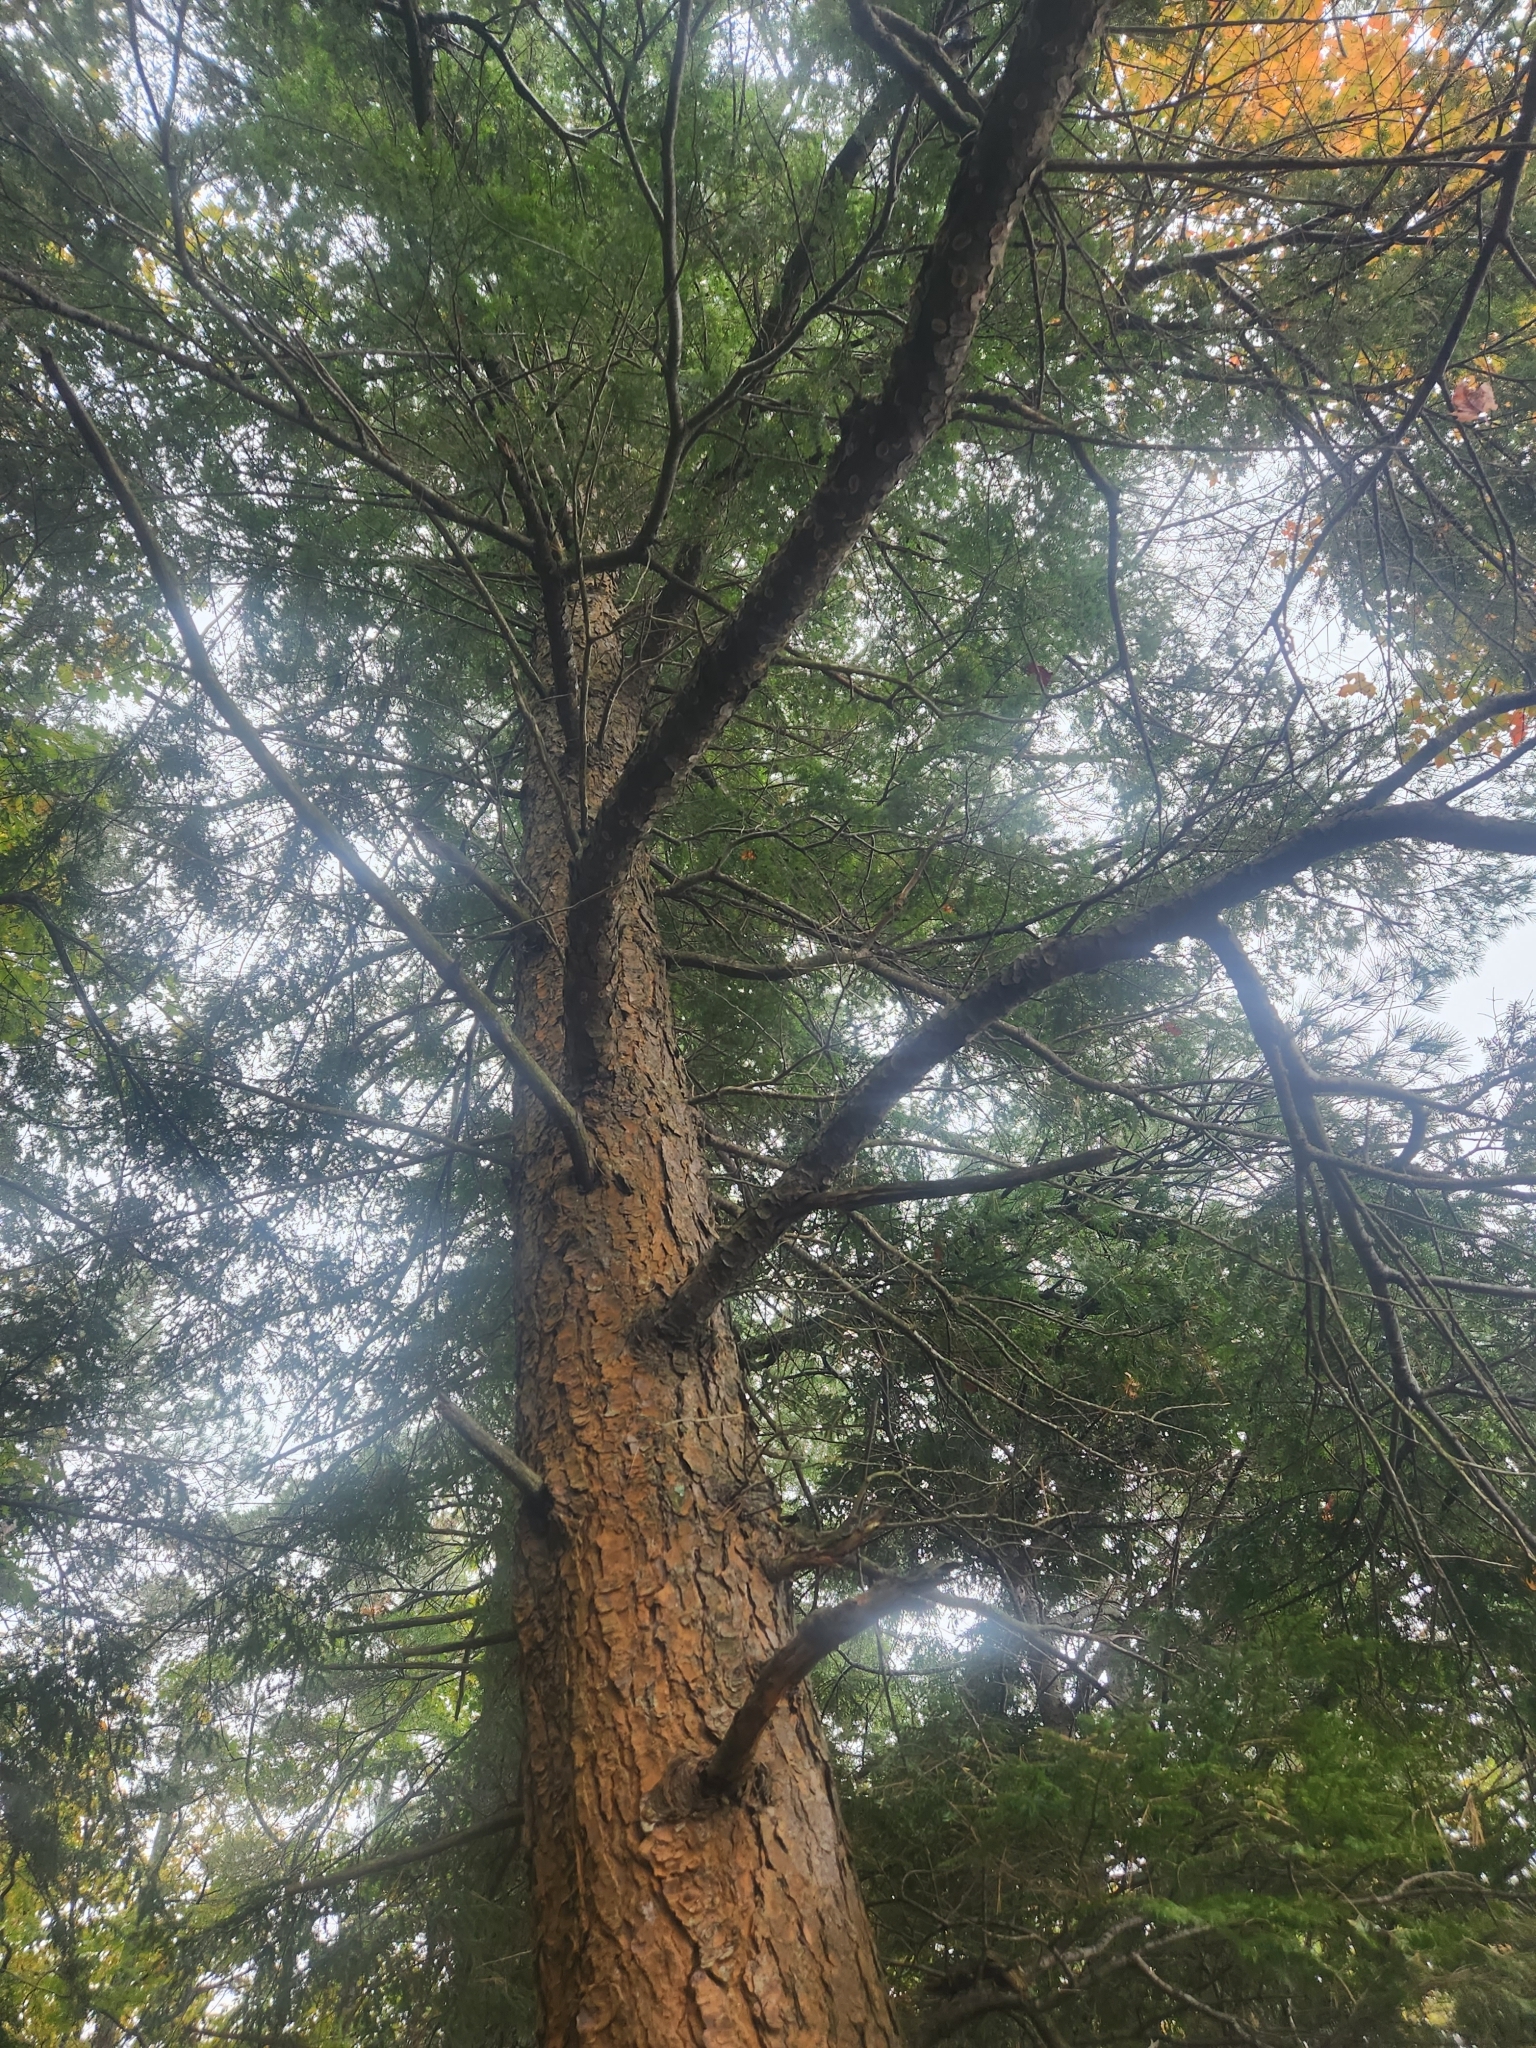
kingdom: Plantae
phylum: Tracheophyta
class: Pinopsida
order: Pinales
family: Pinaceae
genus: Tsuga
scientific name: Tsuga canadensis
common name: Eastern hemlock
